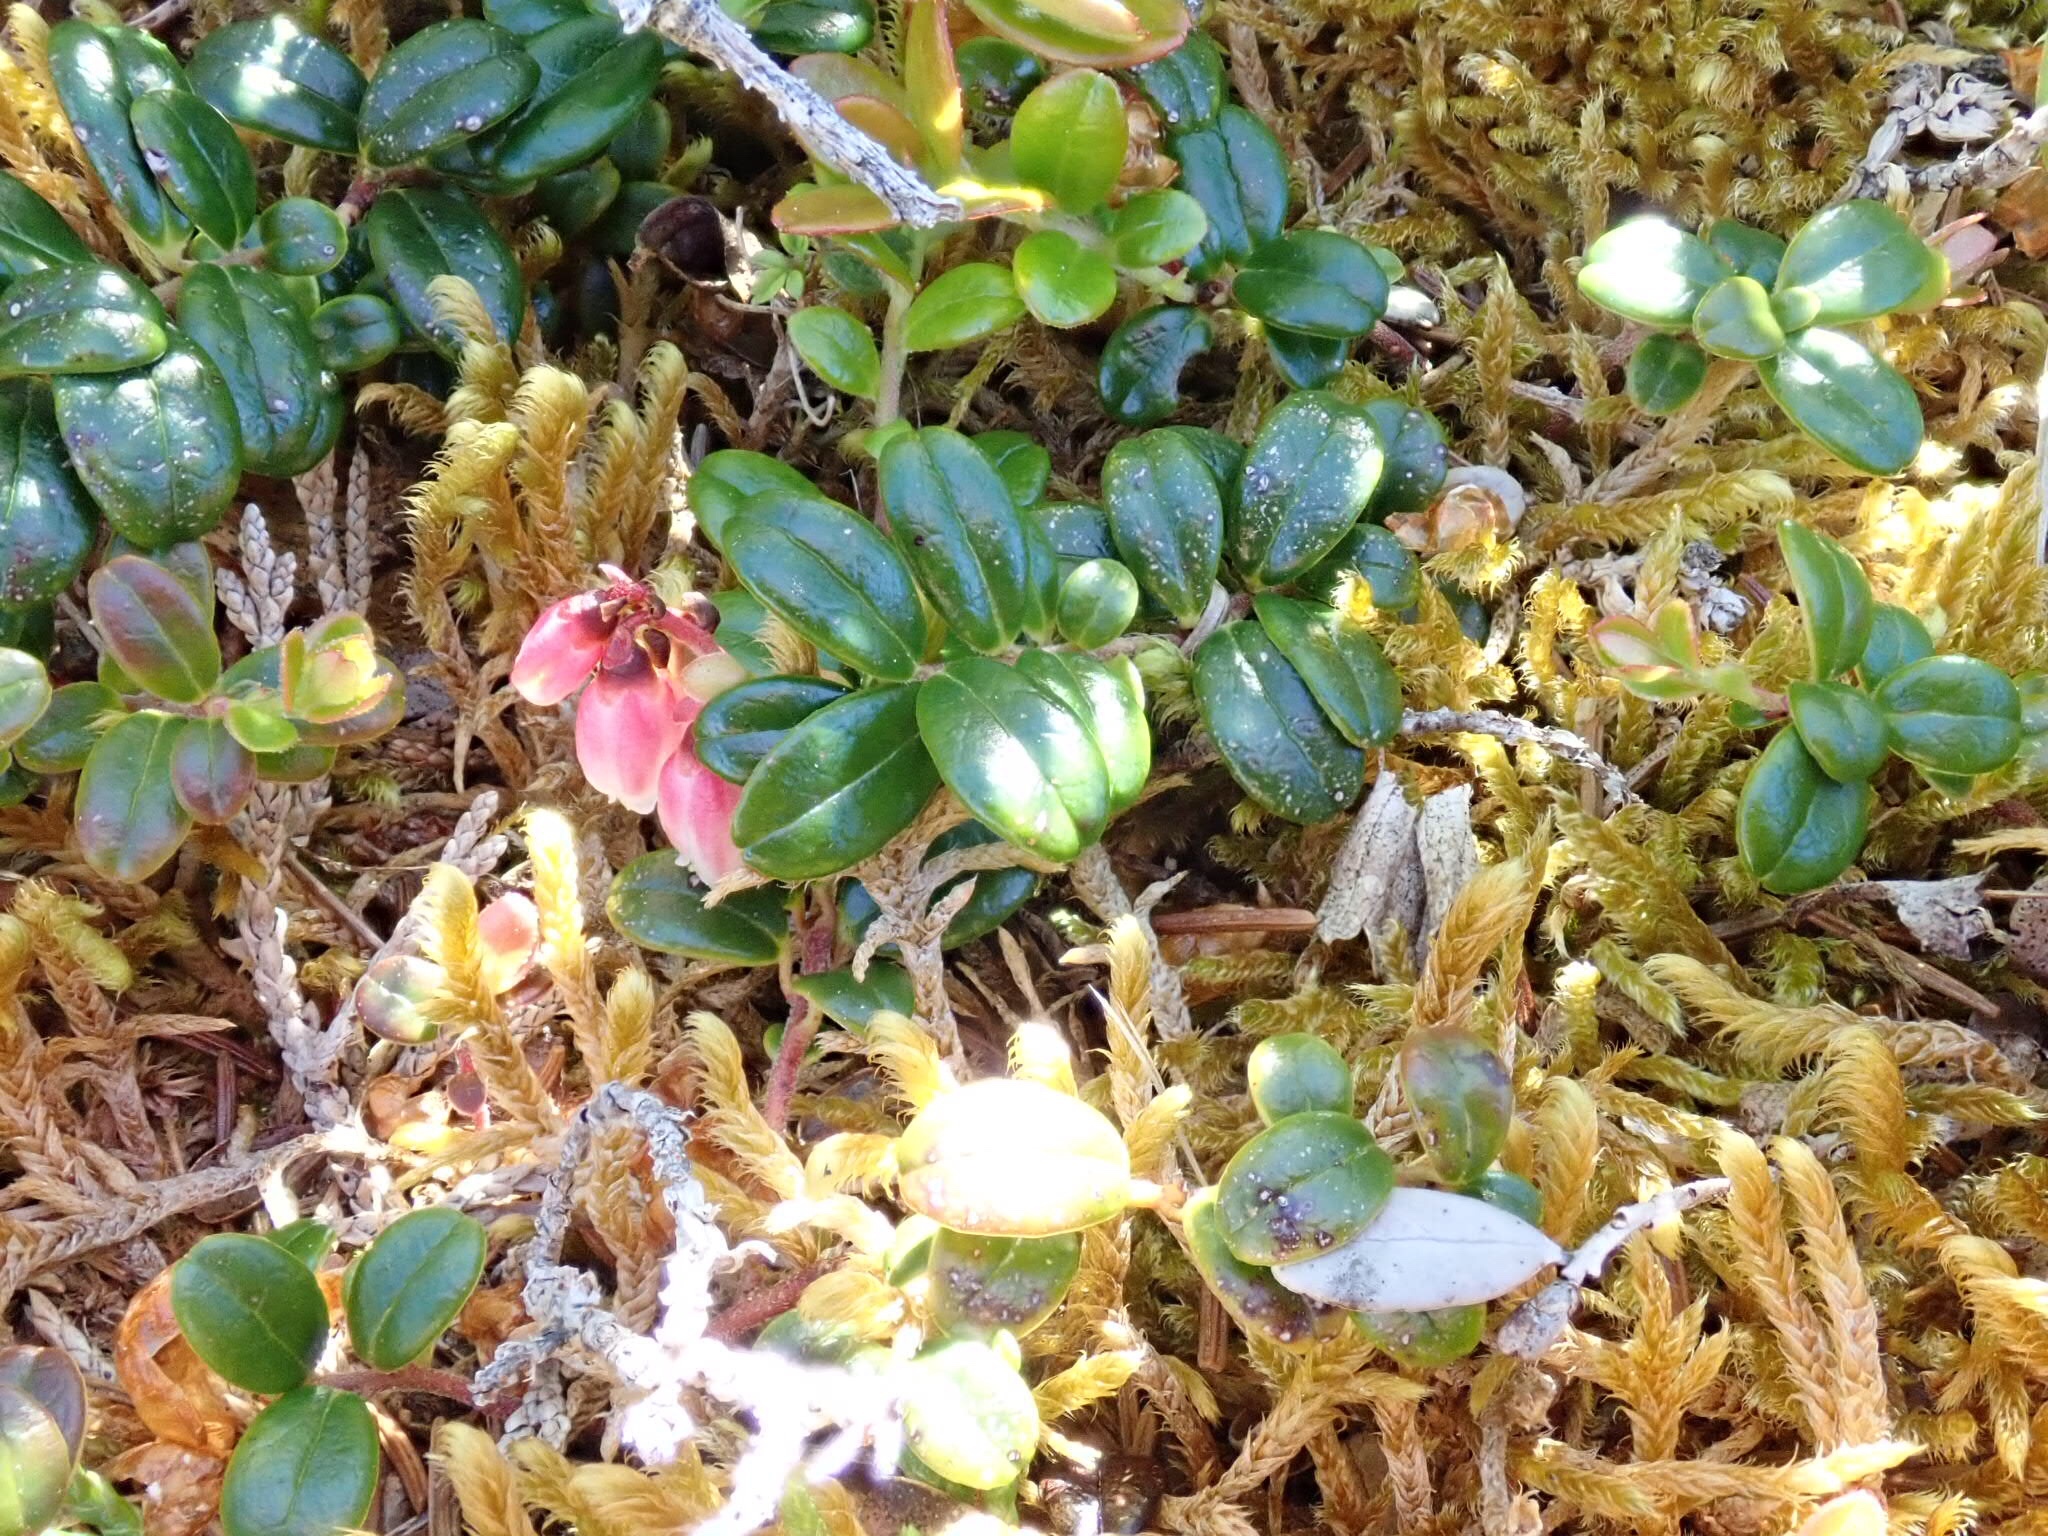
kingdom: Plantae
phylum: Tracheophyta
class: Magnoliopsida
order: Ericales
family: Ericaceae
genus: Vaccinium
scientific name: Vaccinium vitis-idaea
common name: Cowberry
